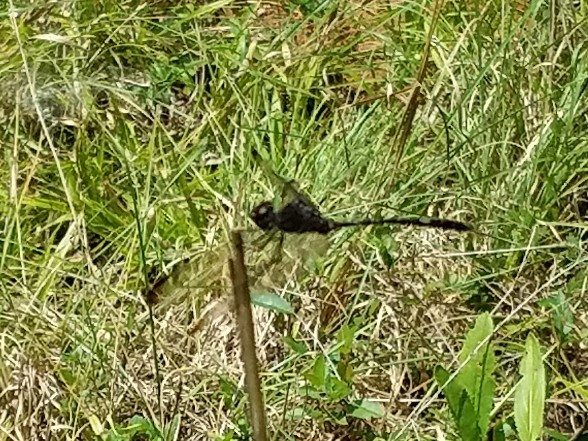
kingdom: Animalia
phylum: Arthropoda
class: Insecta
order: Odonata
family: Libellulidae
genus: Dythemis
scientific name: Dythemis velox
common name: Swift setwing
